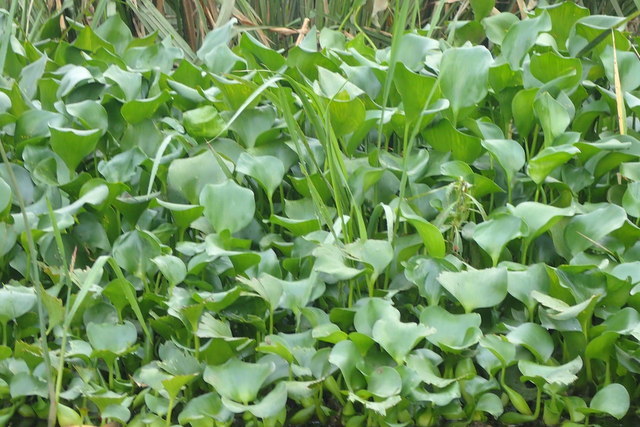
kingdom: Plantae
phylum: Tracheophyta
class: Liliopsida
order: Commelinales
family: Pontederiaceae
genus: Pontederia
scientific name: Pontederia crassipes
